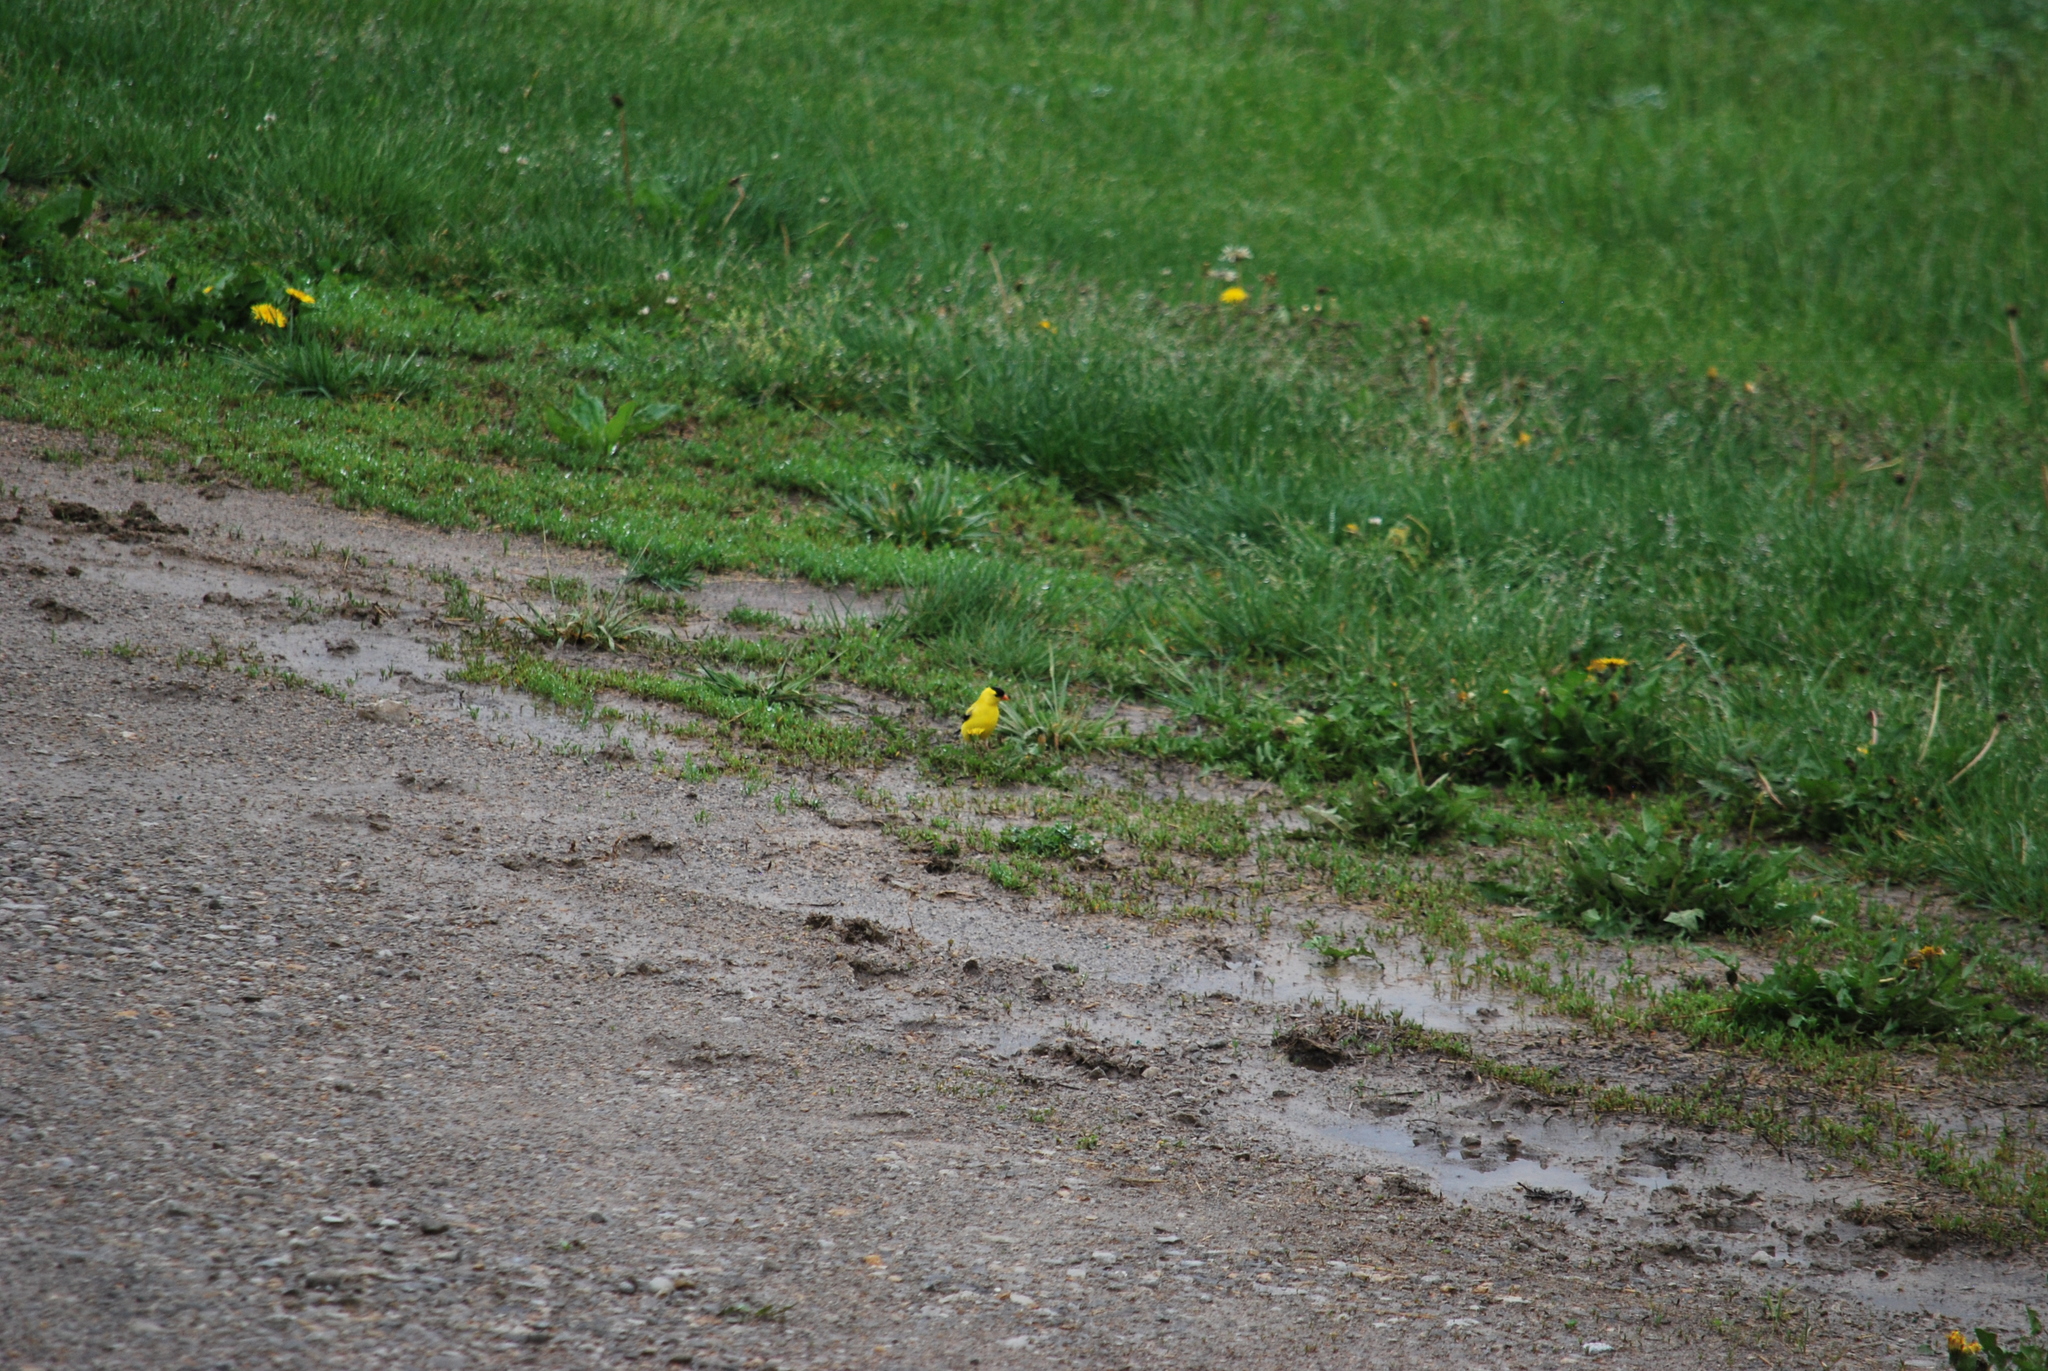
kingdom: Animalia
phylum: Chordata
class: Aves
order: Passeriformes
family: Fringillidae
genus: Spinus
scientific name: Spinus tristis
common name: American goldfinch
